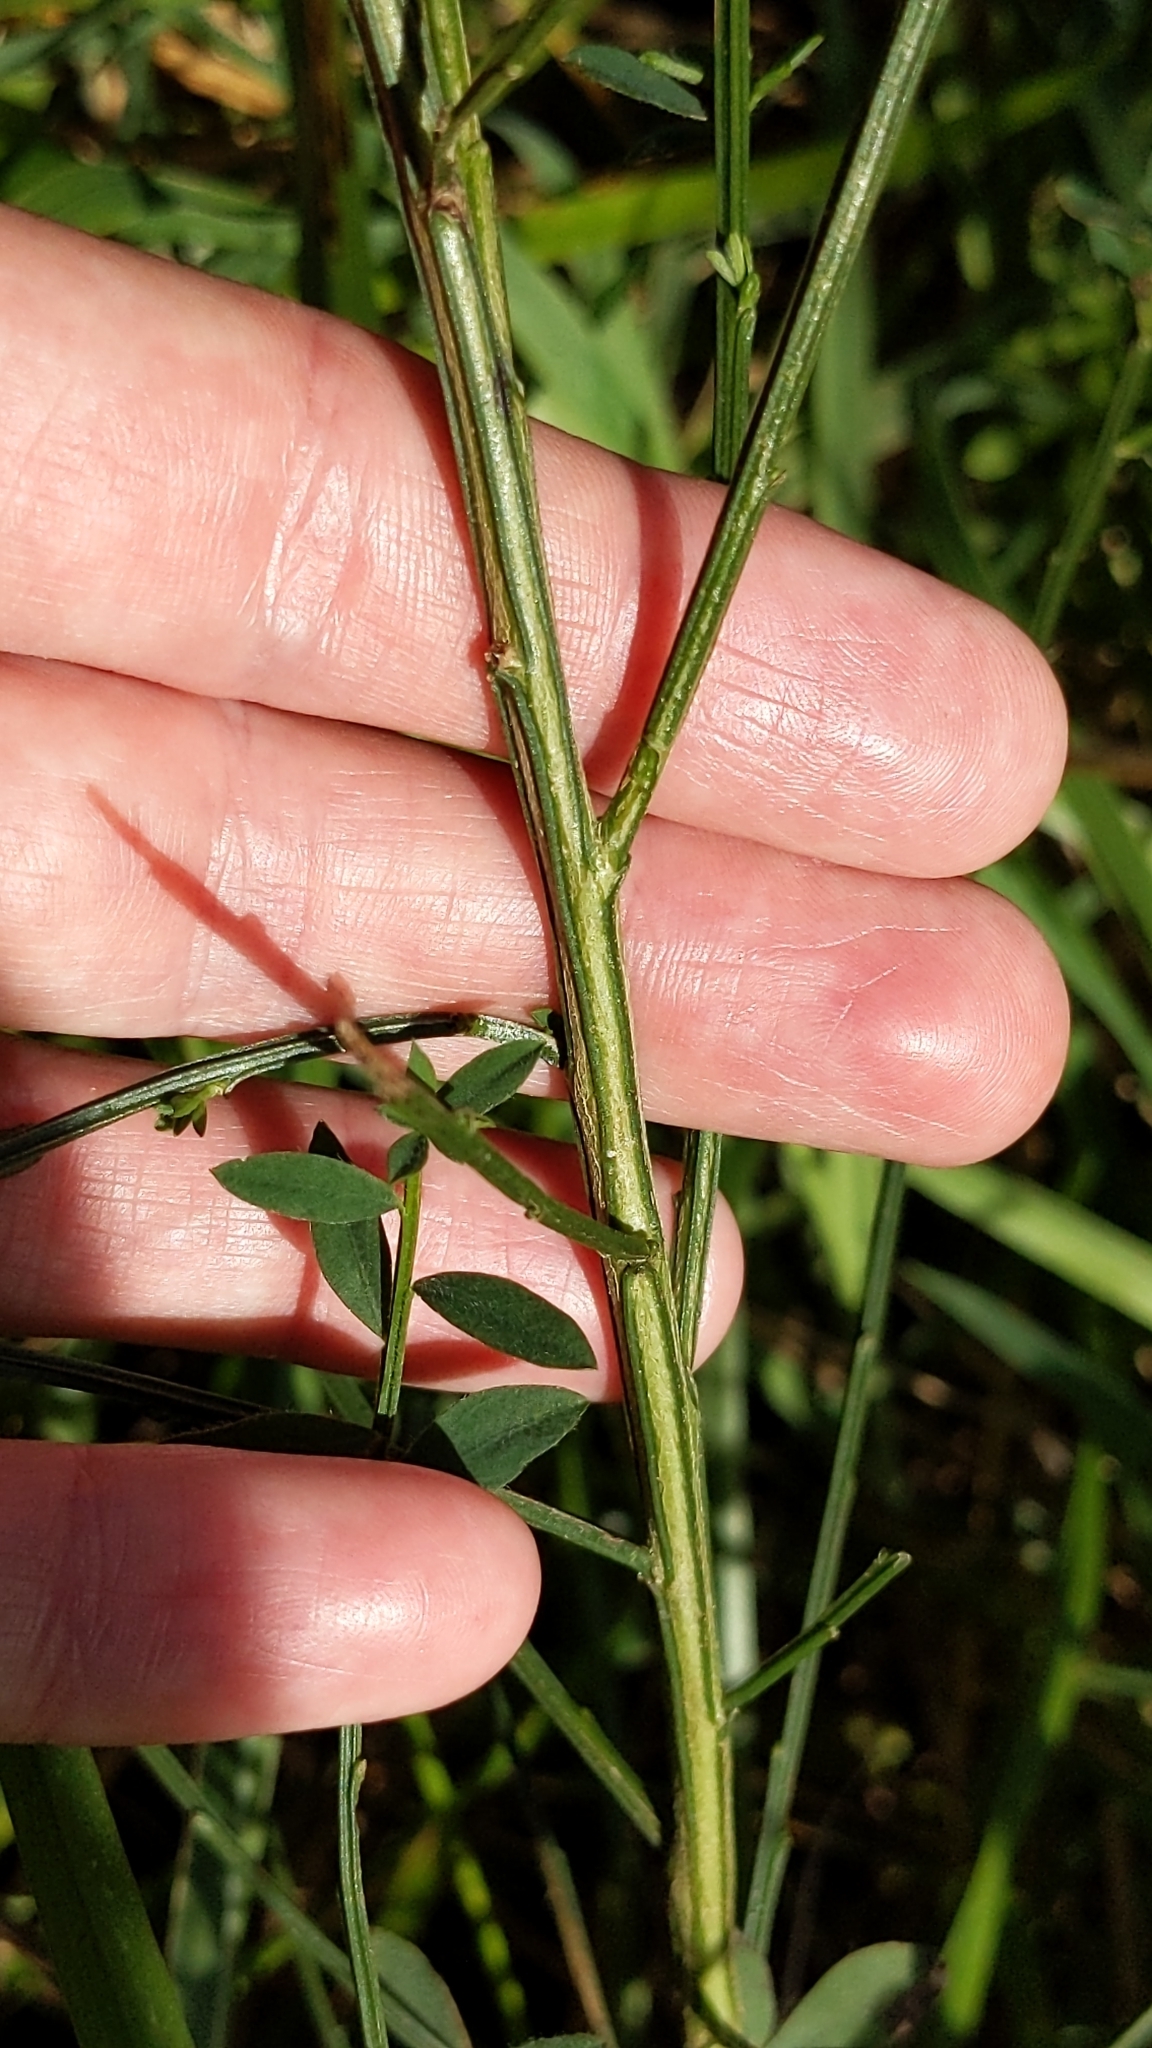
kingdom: Plantae
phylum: Tracheophyta
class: Magnoliopsida
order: Fabales
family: Fabaceae
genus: Cytisus
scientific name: Cytisus scoparius
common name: Scotch broom
